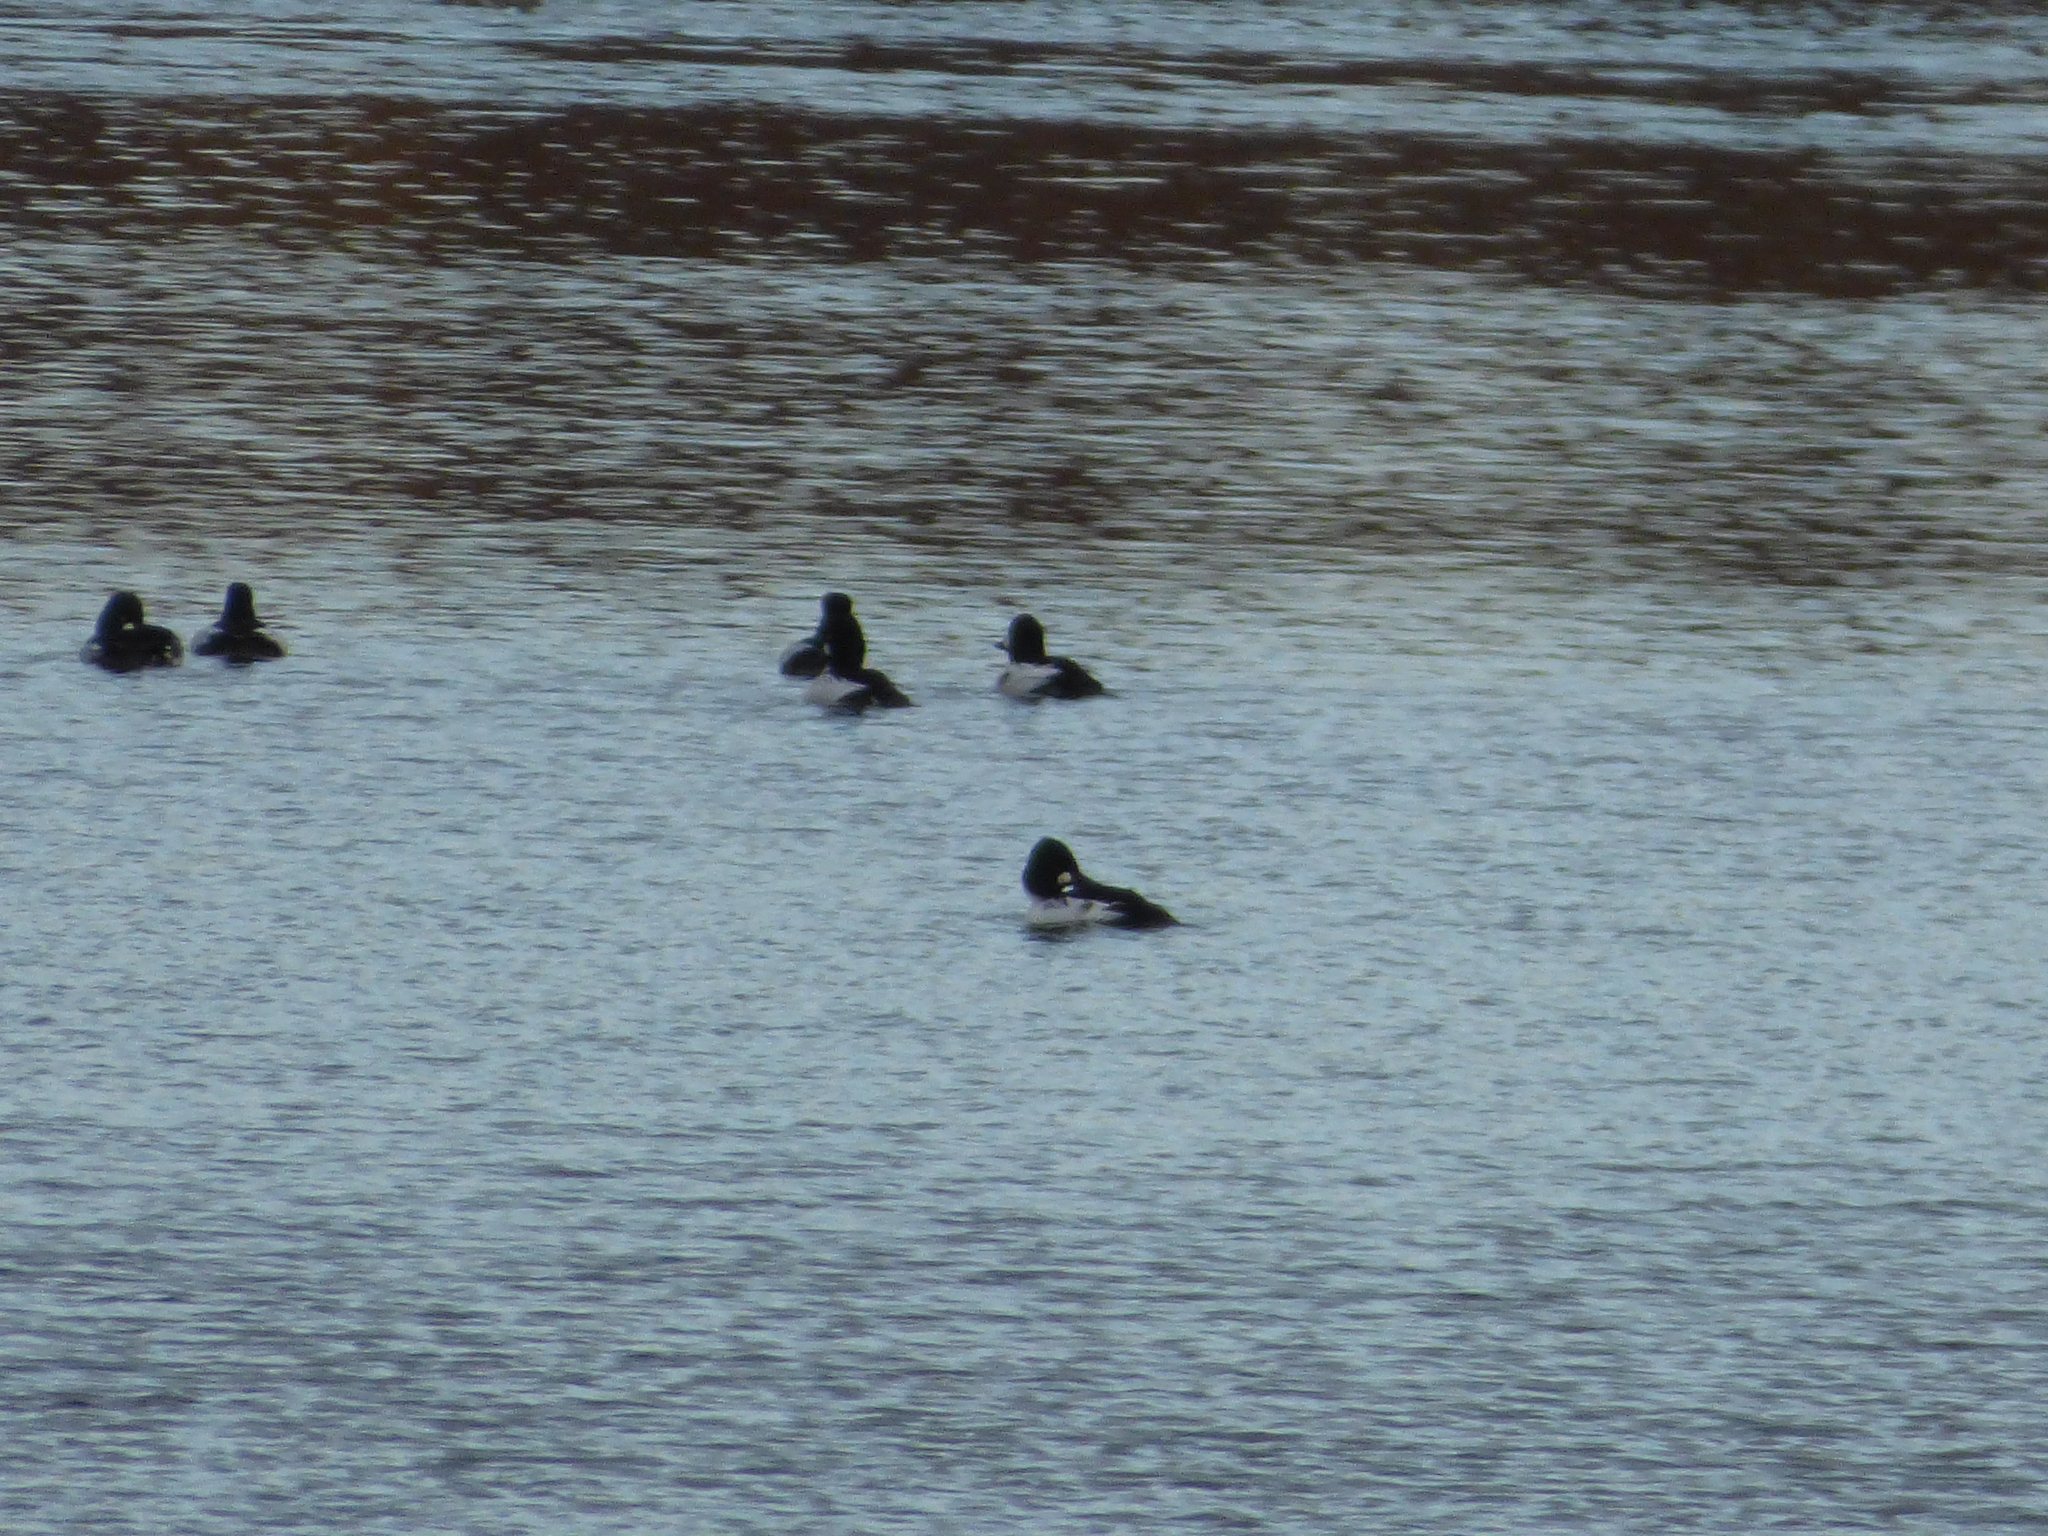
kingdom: Animalia
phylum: Chordata
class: Aves
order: Anseriformes
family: Anatidae
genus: Bucephala
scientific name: Bucephala clangula
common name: Common goldeneye
